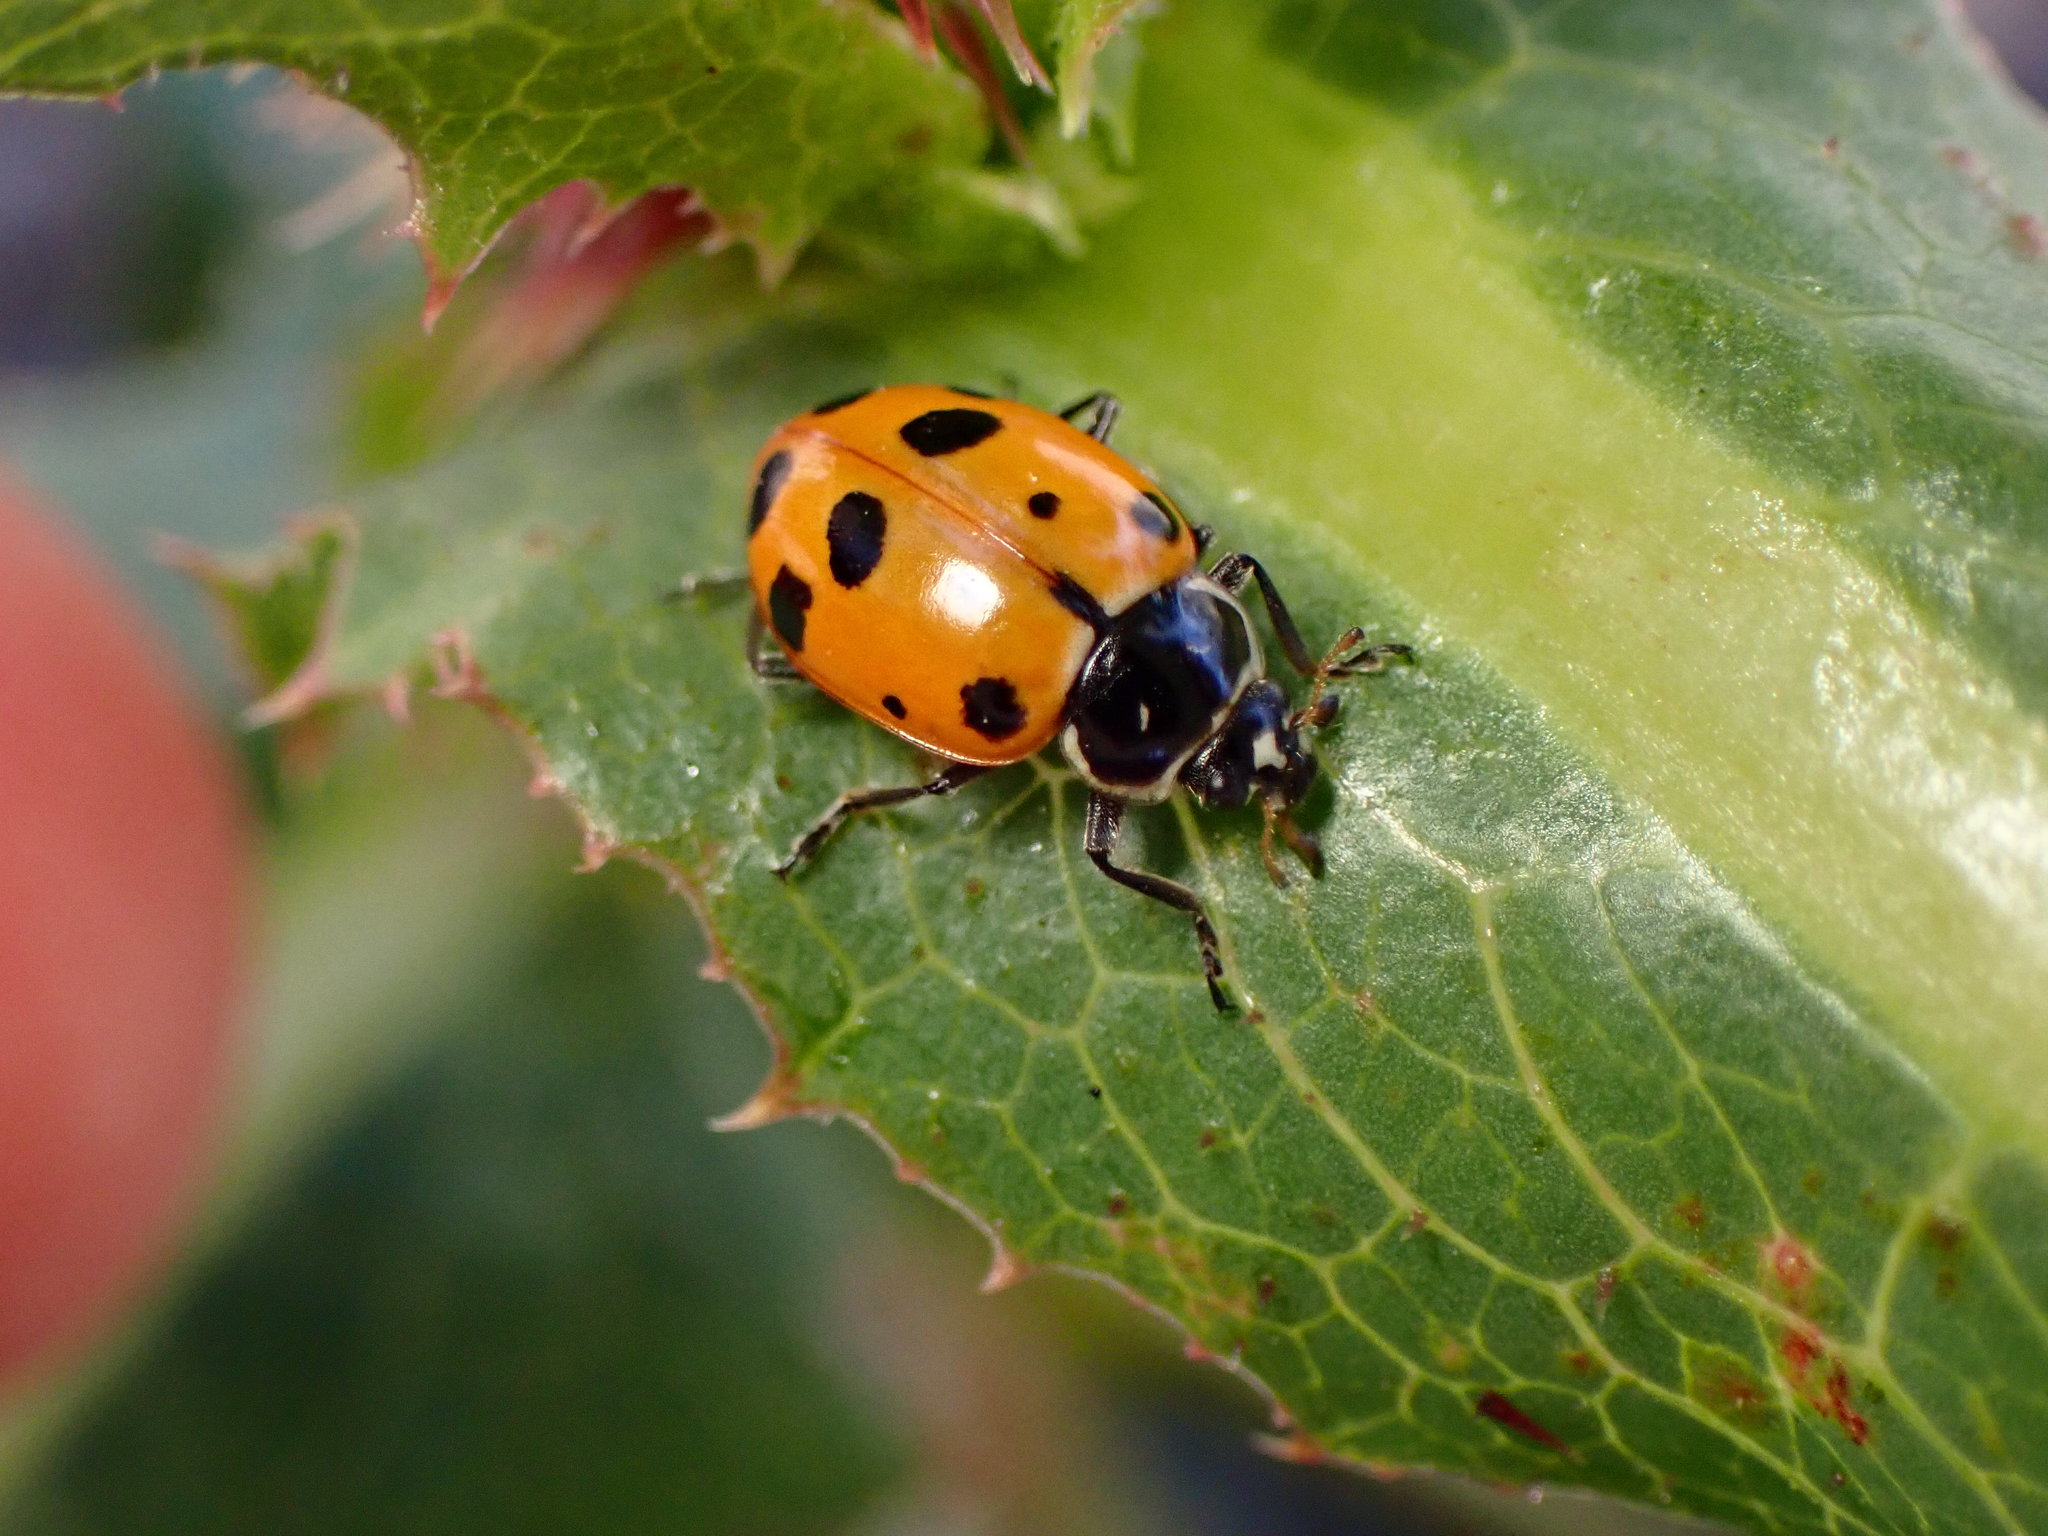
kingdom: Animalia
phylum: Arthropoda
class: Insecta
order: Coleoptera
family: Coccinellidae
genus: Hippodamia
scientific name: Hippodamia convergens
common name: Convergent lady beetle
